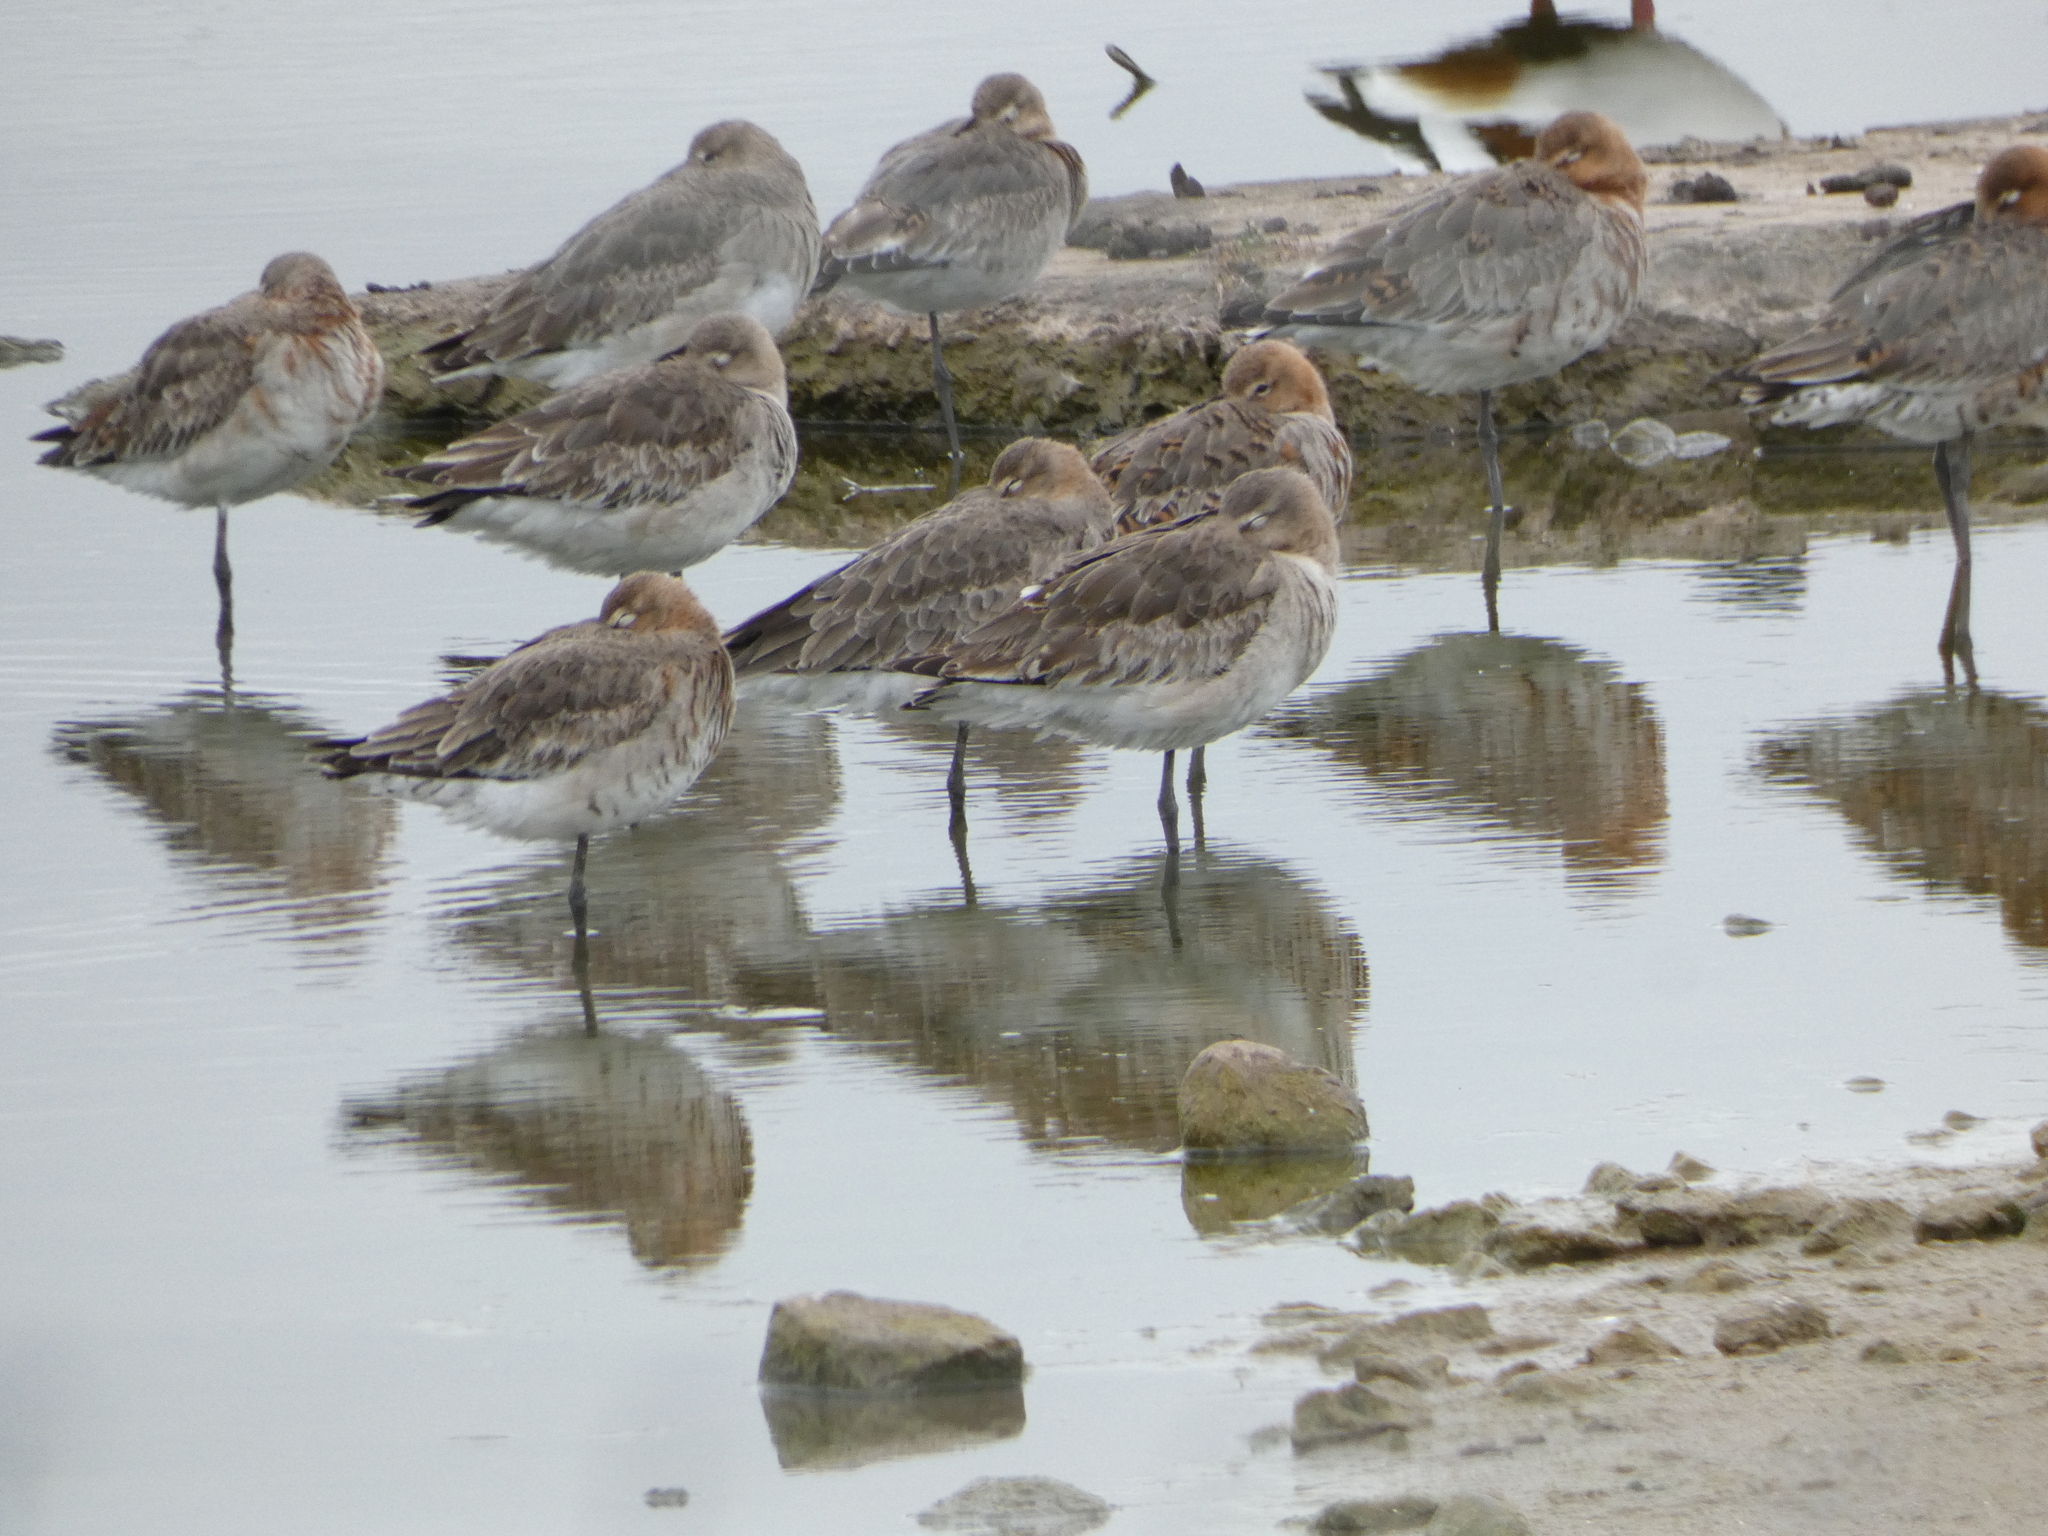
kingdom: Animalia
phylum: Chordata
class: Aves
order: Charadriiformes
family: Scolopacidae
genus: Limosa
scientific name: Limosa limosa
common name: Black-tailed godwit
